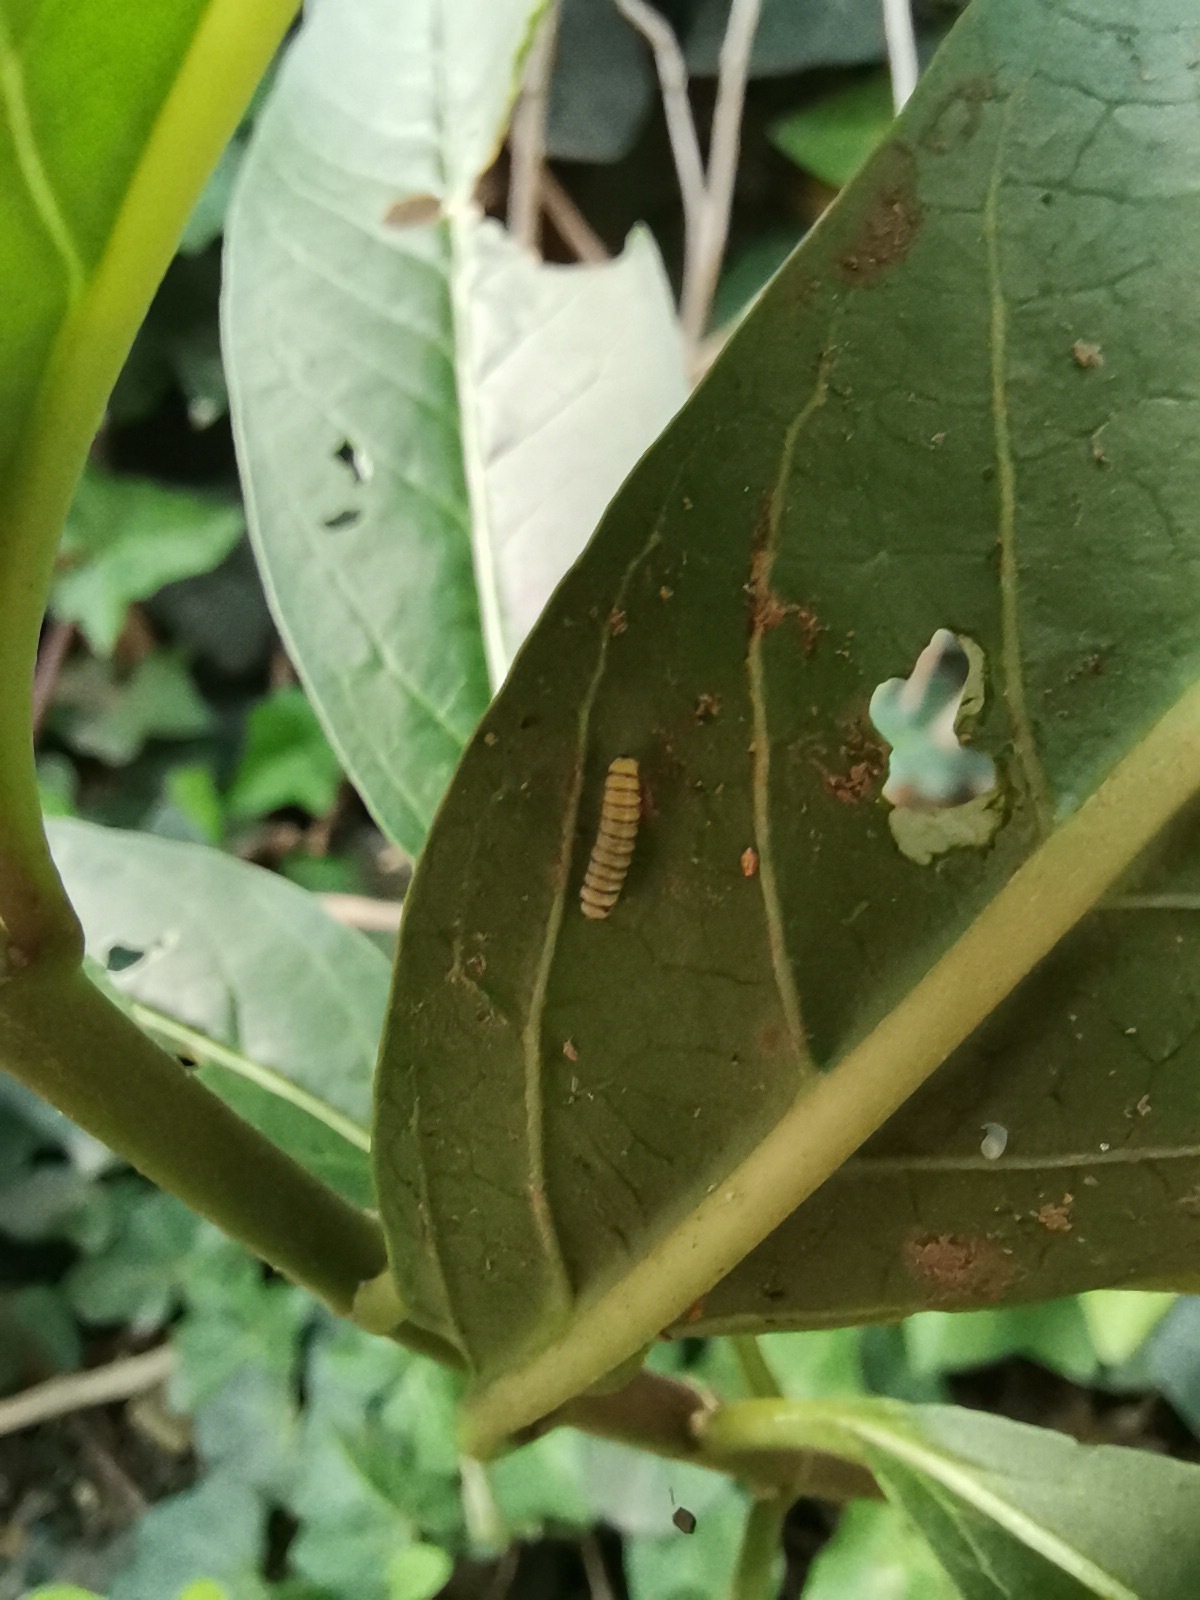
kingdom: Animalia
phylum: Arthropoda
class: Insecta
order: Lepidoptera
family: Nymphalidae
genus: Danaus
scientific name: Danaus plexippus
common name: Monarch
